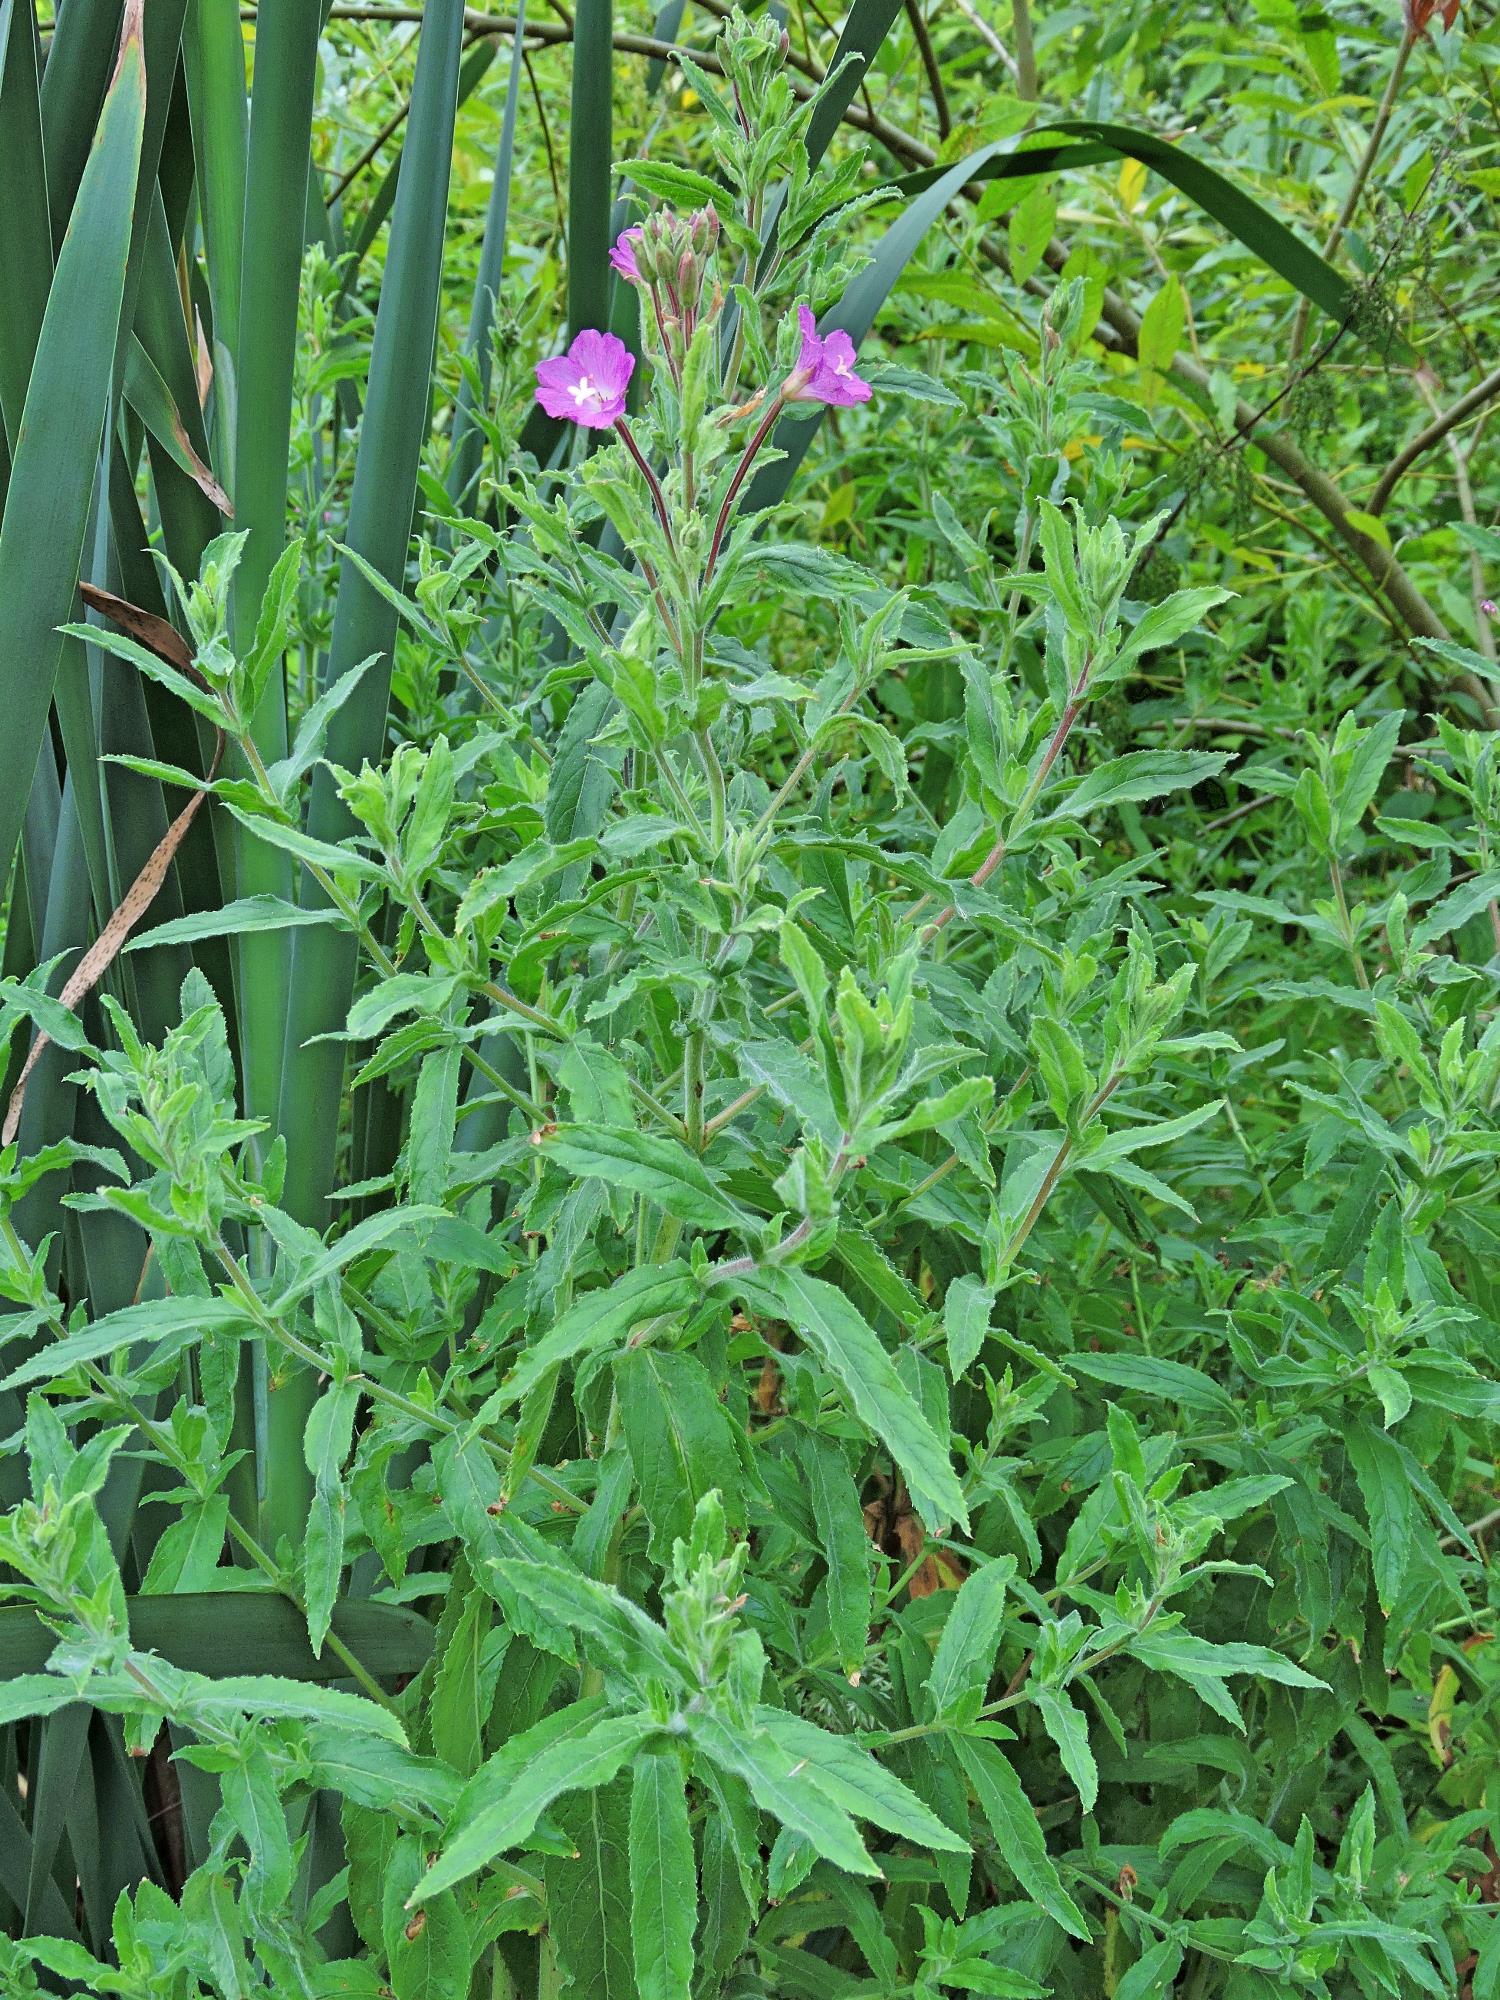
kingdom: Plantae
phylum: Tracheophyta
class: Magnoliopsida
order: Myrtales
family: Onagraceae
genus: Epilobium
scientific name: Epilobium hirsutum
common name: Great willowherb
